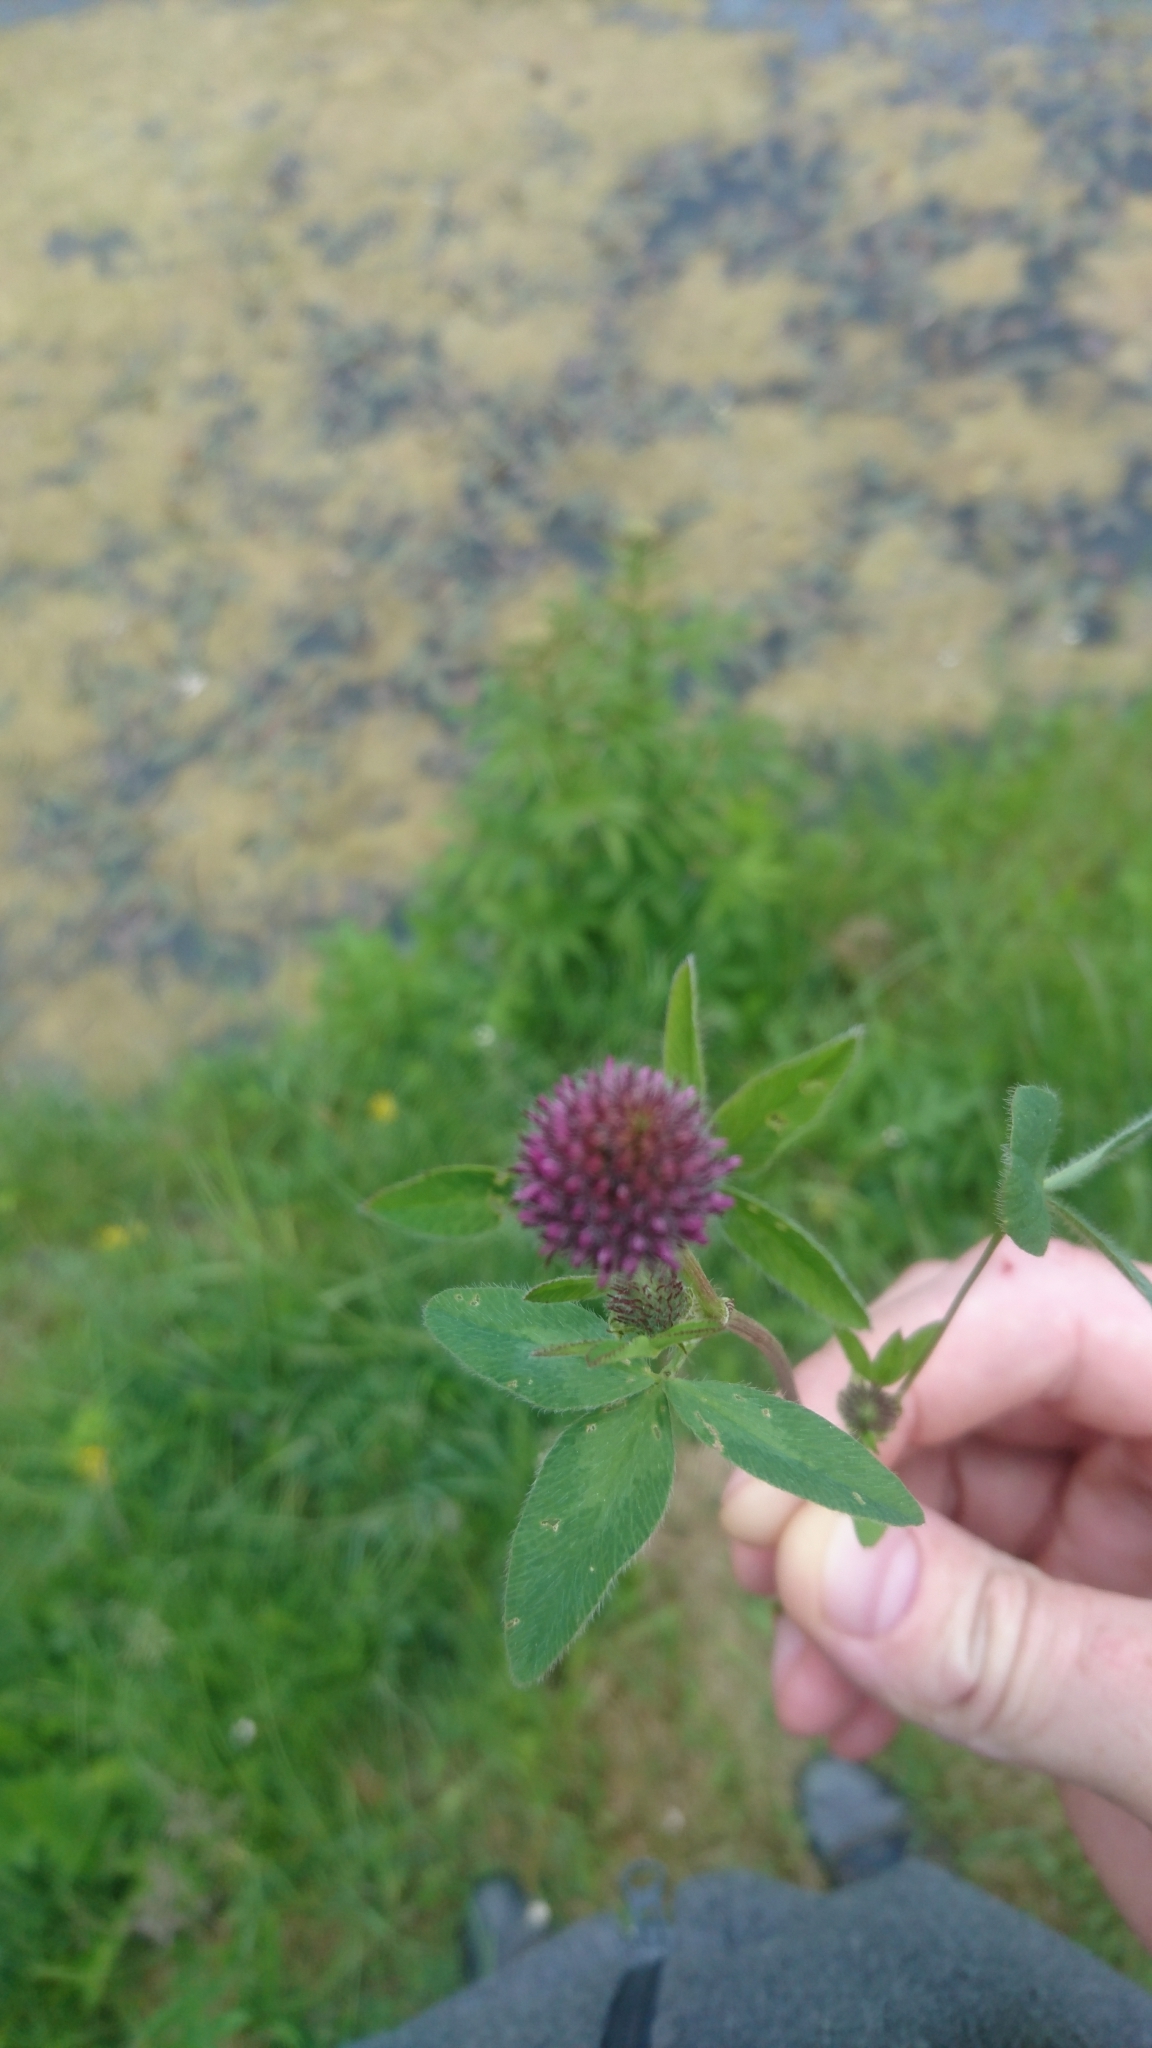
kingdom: Plantae
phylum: Tracheophyta
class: Magnoliopsida
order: Fabales
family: Fabaceae
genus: Trifolium
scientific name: Trifolium pratense
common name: Red clover
